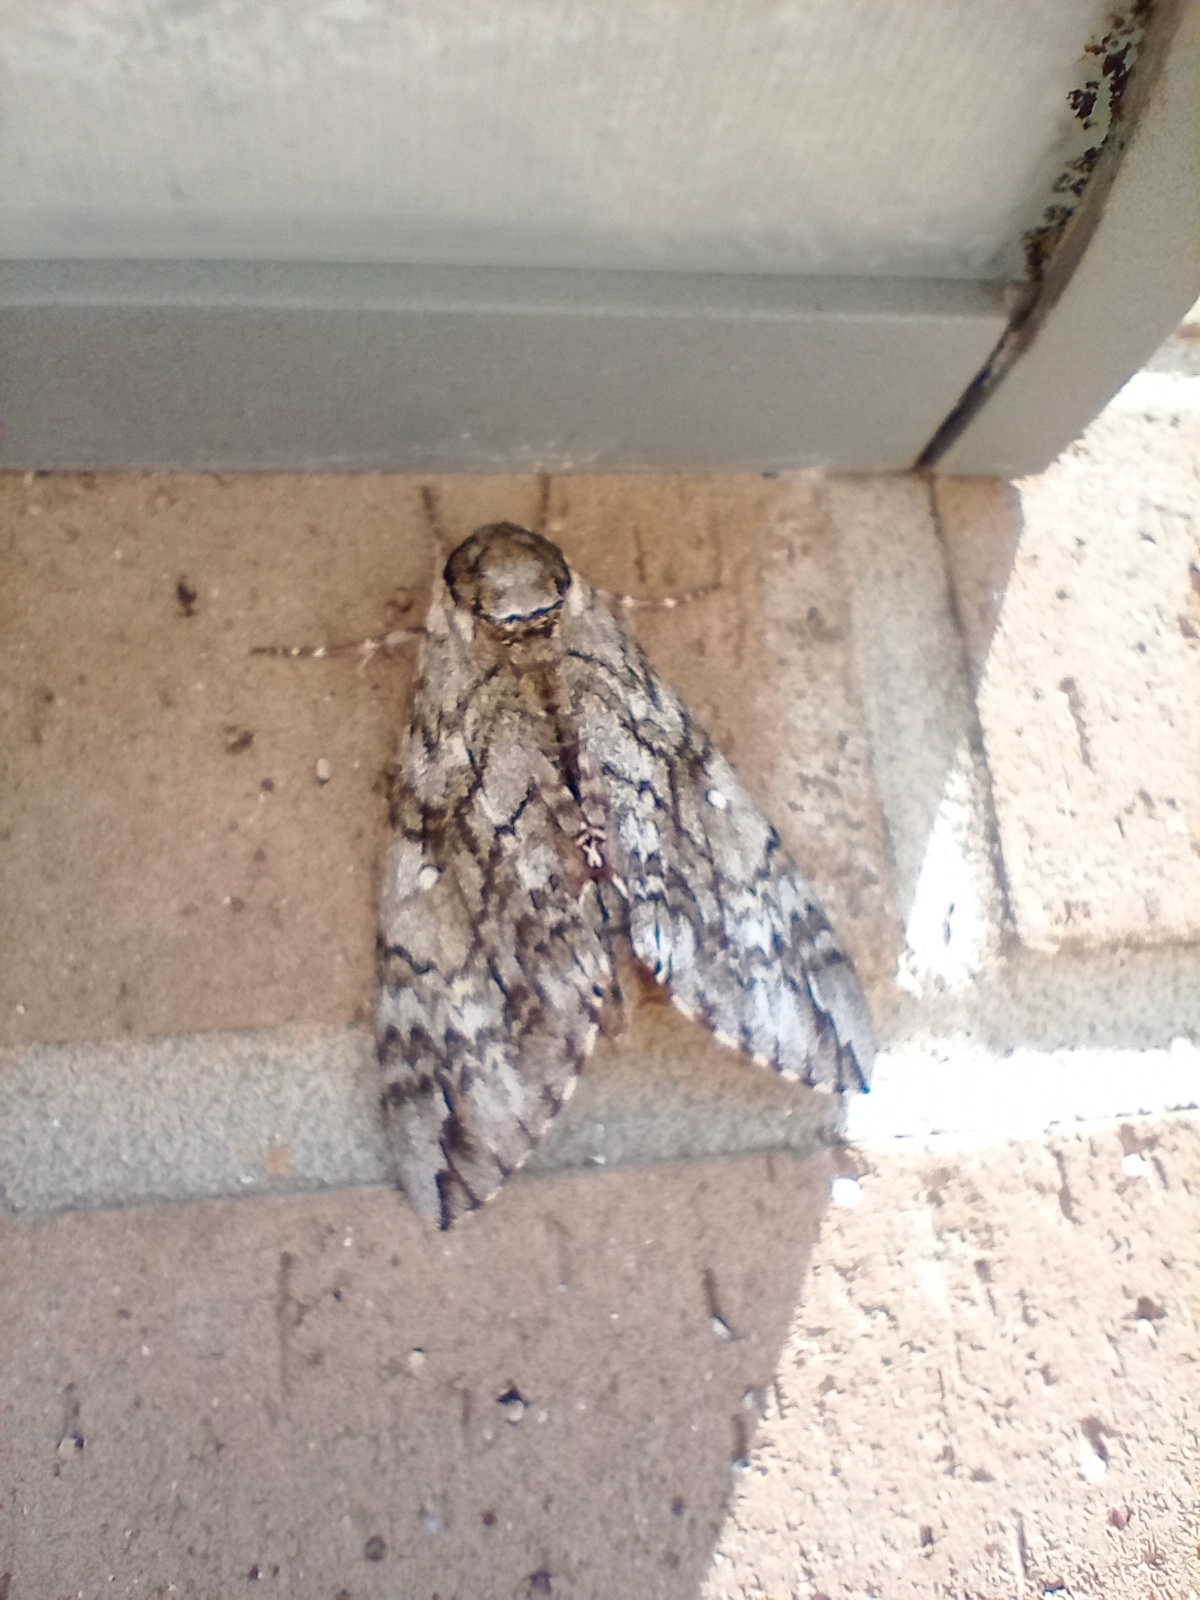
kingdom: Animalia
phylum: Arthropoda
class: Insecta
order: Lepidoptera
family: Sphingidae
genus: Ceratomia
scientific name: Ceratomia undulosa
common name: Waved sphinx
